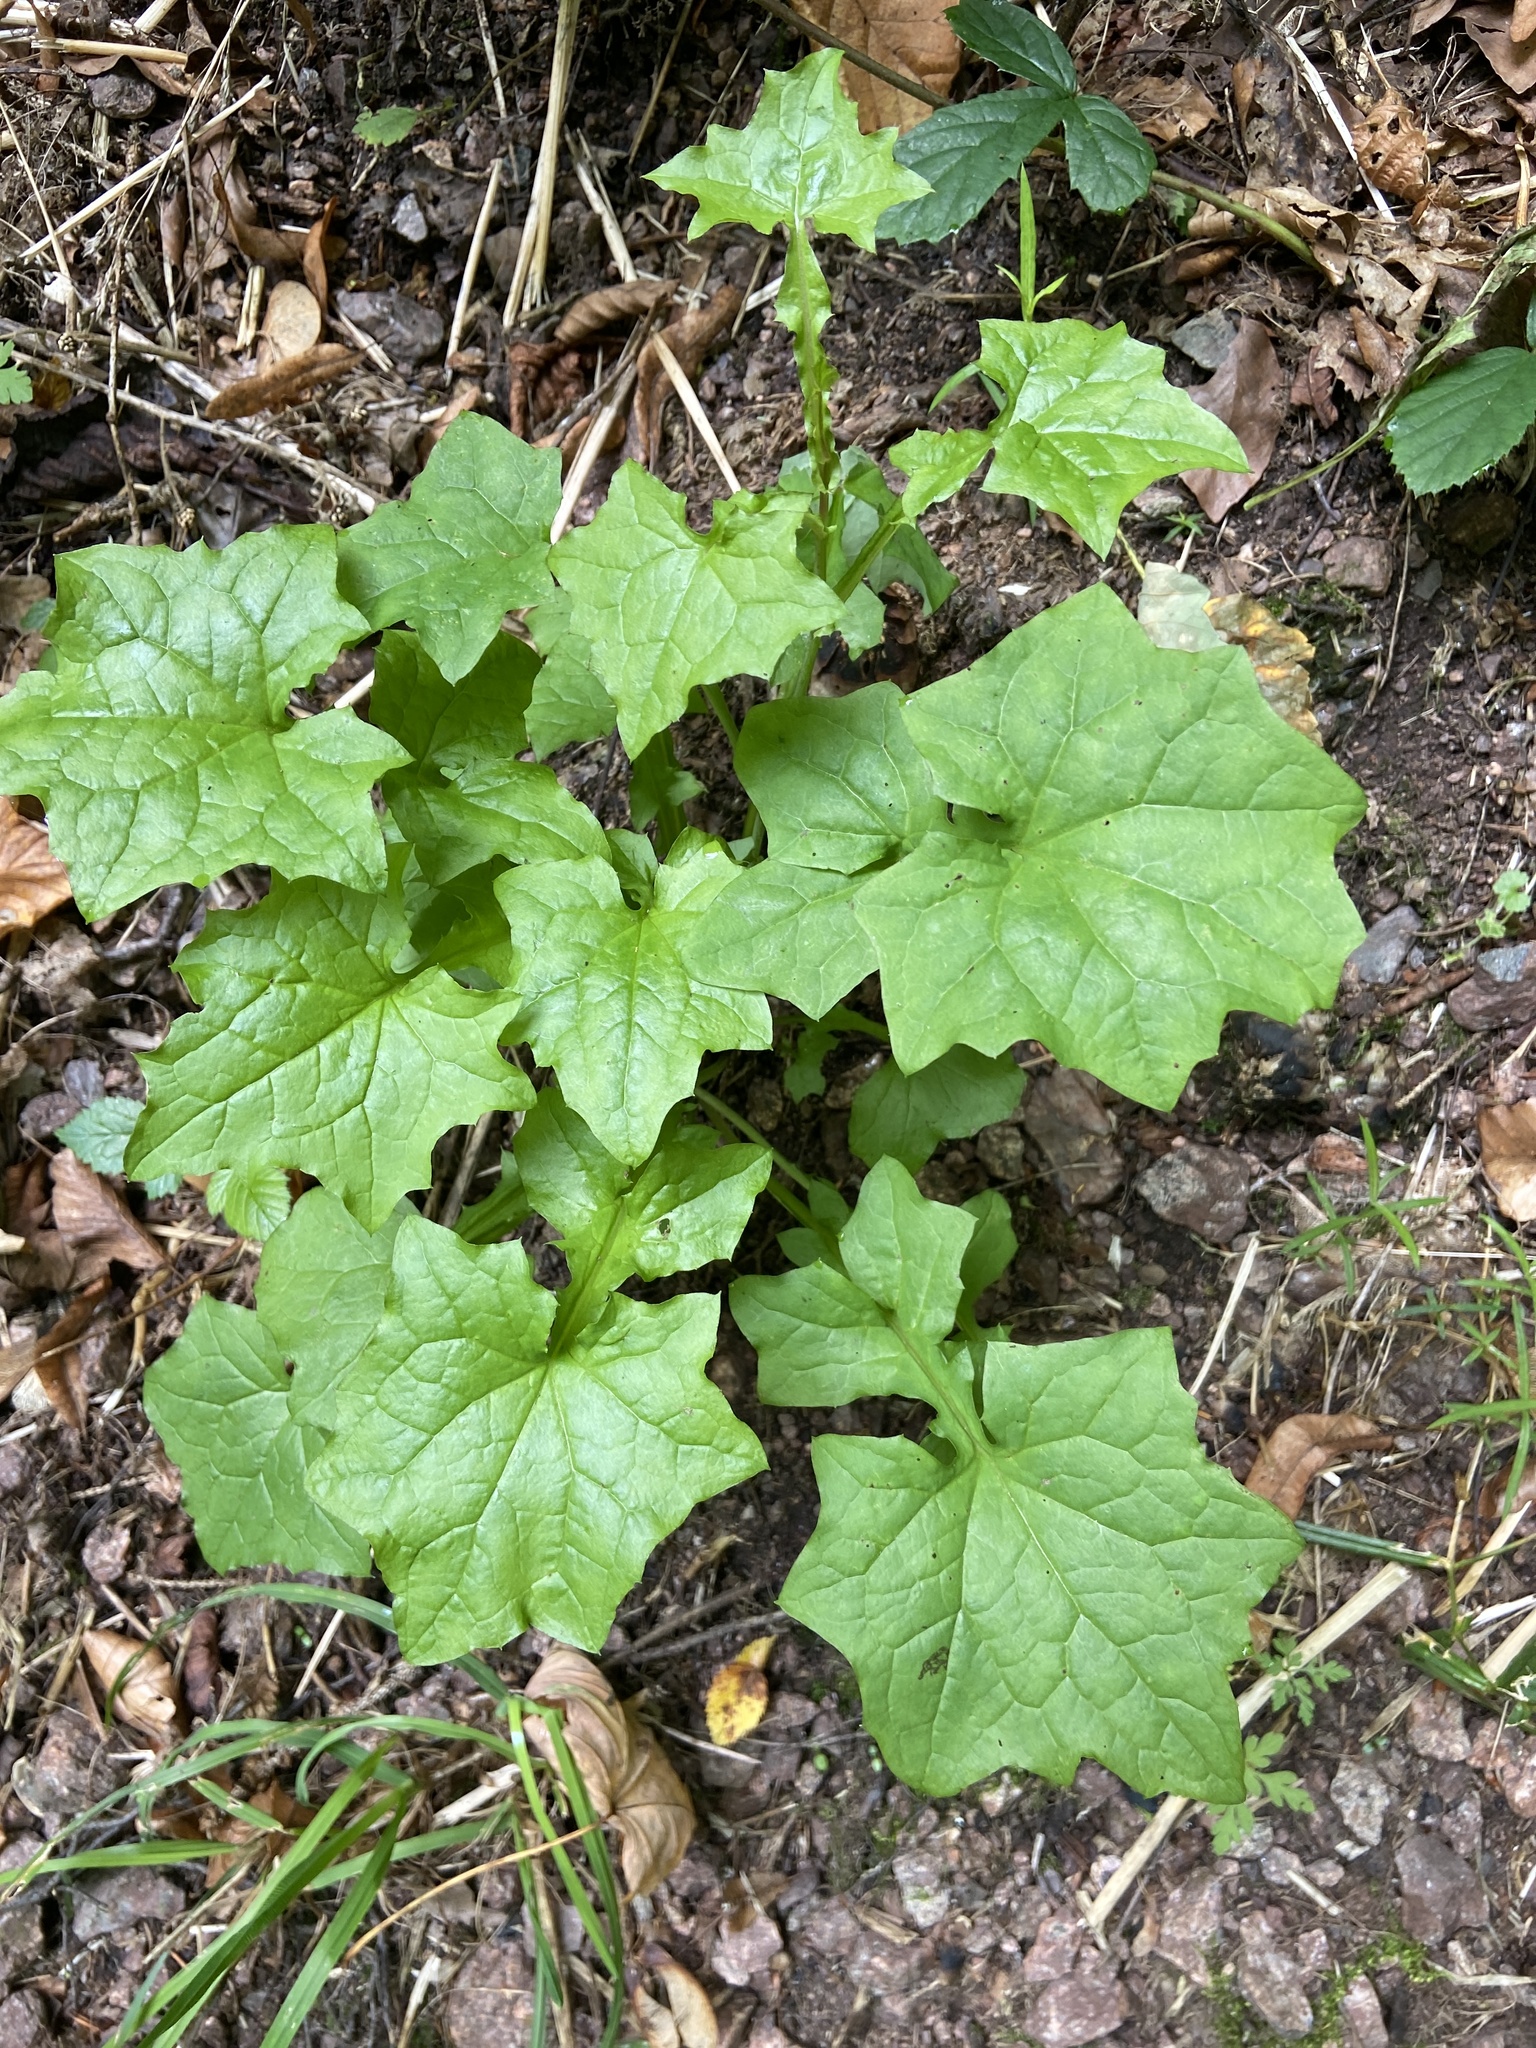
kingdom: Plantae
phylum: Tracheophyta
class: Magnoliopsida
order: Asterales
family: Asteraceae
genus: Mycelis
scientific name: Mycelis muralis
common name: Wall lettuce
